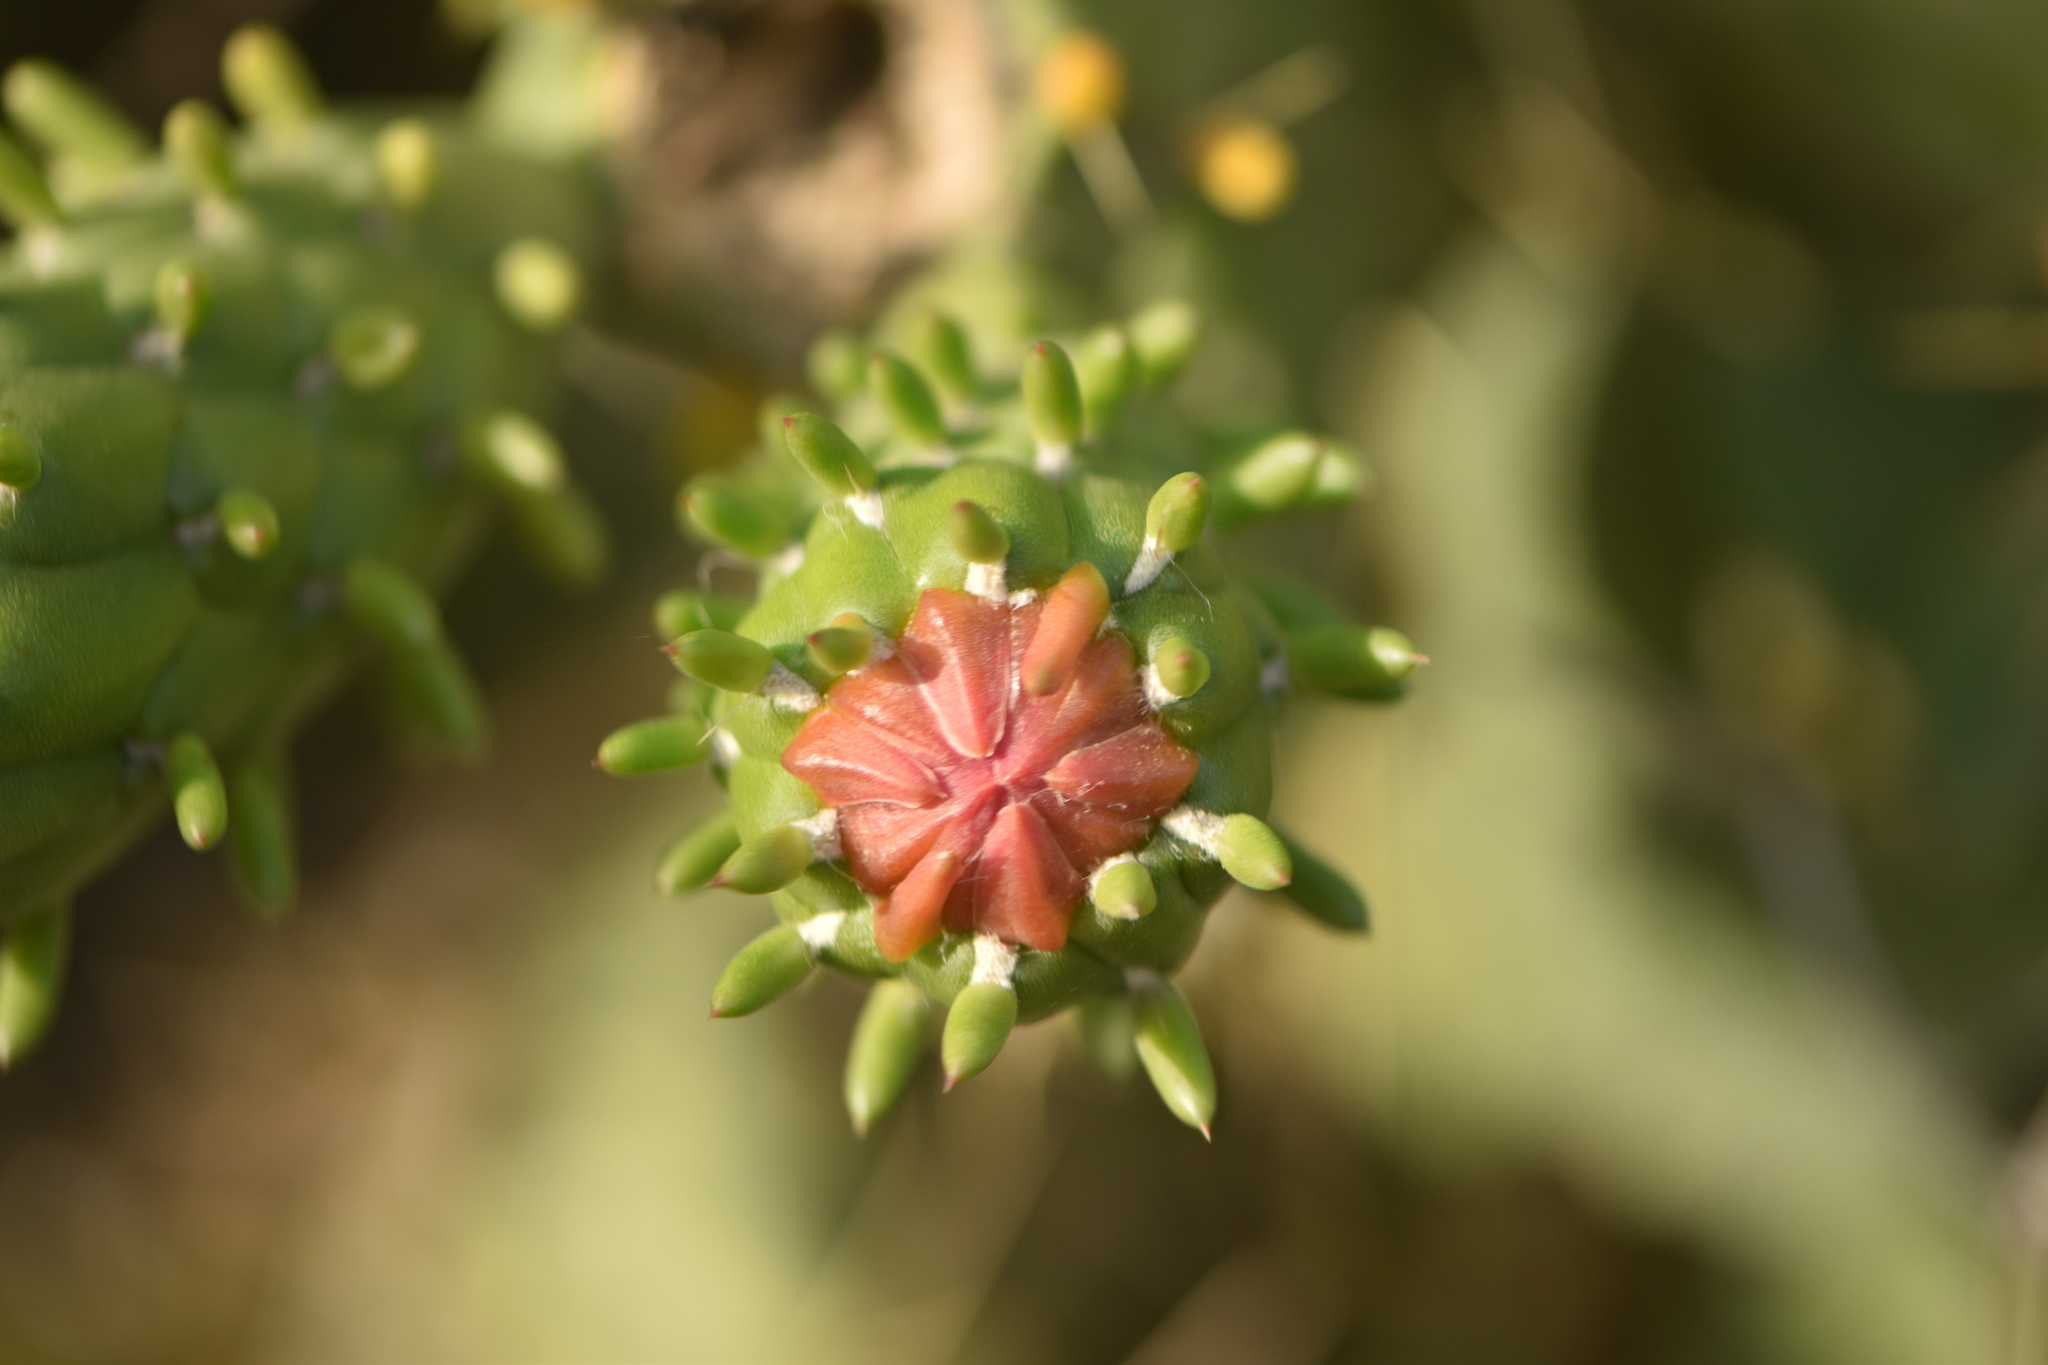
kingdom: Plantae
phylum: Tracheophyta
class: Magnoliopsida
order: Caryophyllales
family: Cactaceae
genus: Austrocylindropuntia
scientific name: Austrocylindropuntia subulata
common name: Eve's needle cactus
